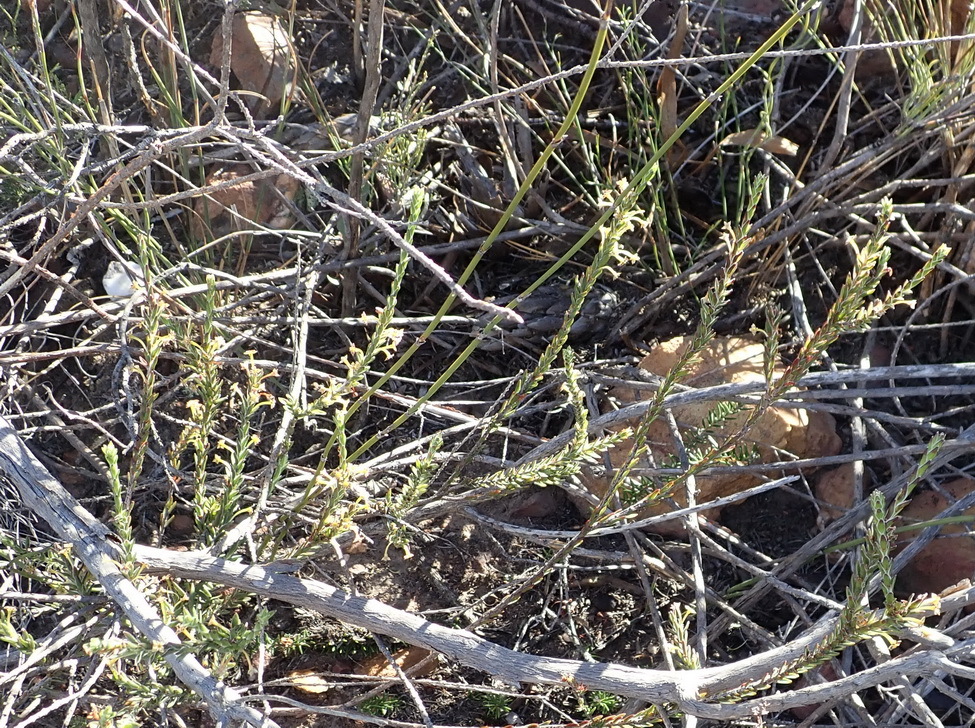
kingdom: Plantae
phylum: Tracheophyta
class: Magnoliopsida
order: Malvales
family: Thymelaeaceae
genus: Struthiola
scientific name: Struthiola parviflora
